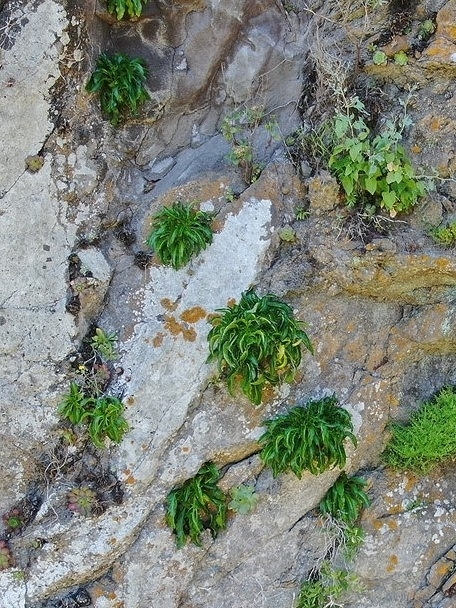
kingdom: Plantae
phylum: Tracheophyta
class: Magnoliopsida
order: Asterales
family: Campanulaceae
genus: Musschia
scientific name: Musschia aurea
